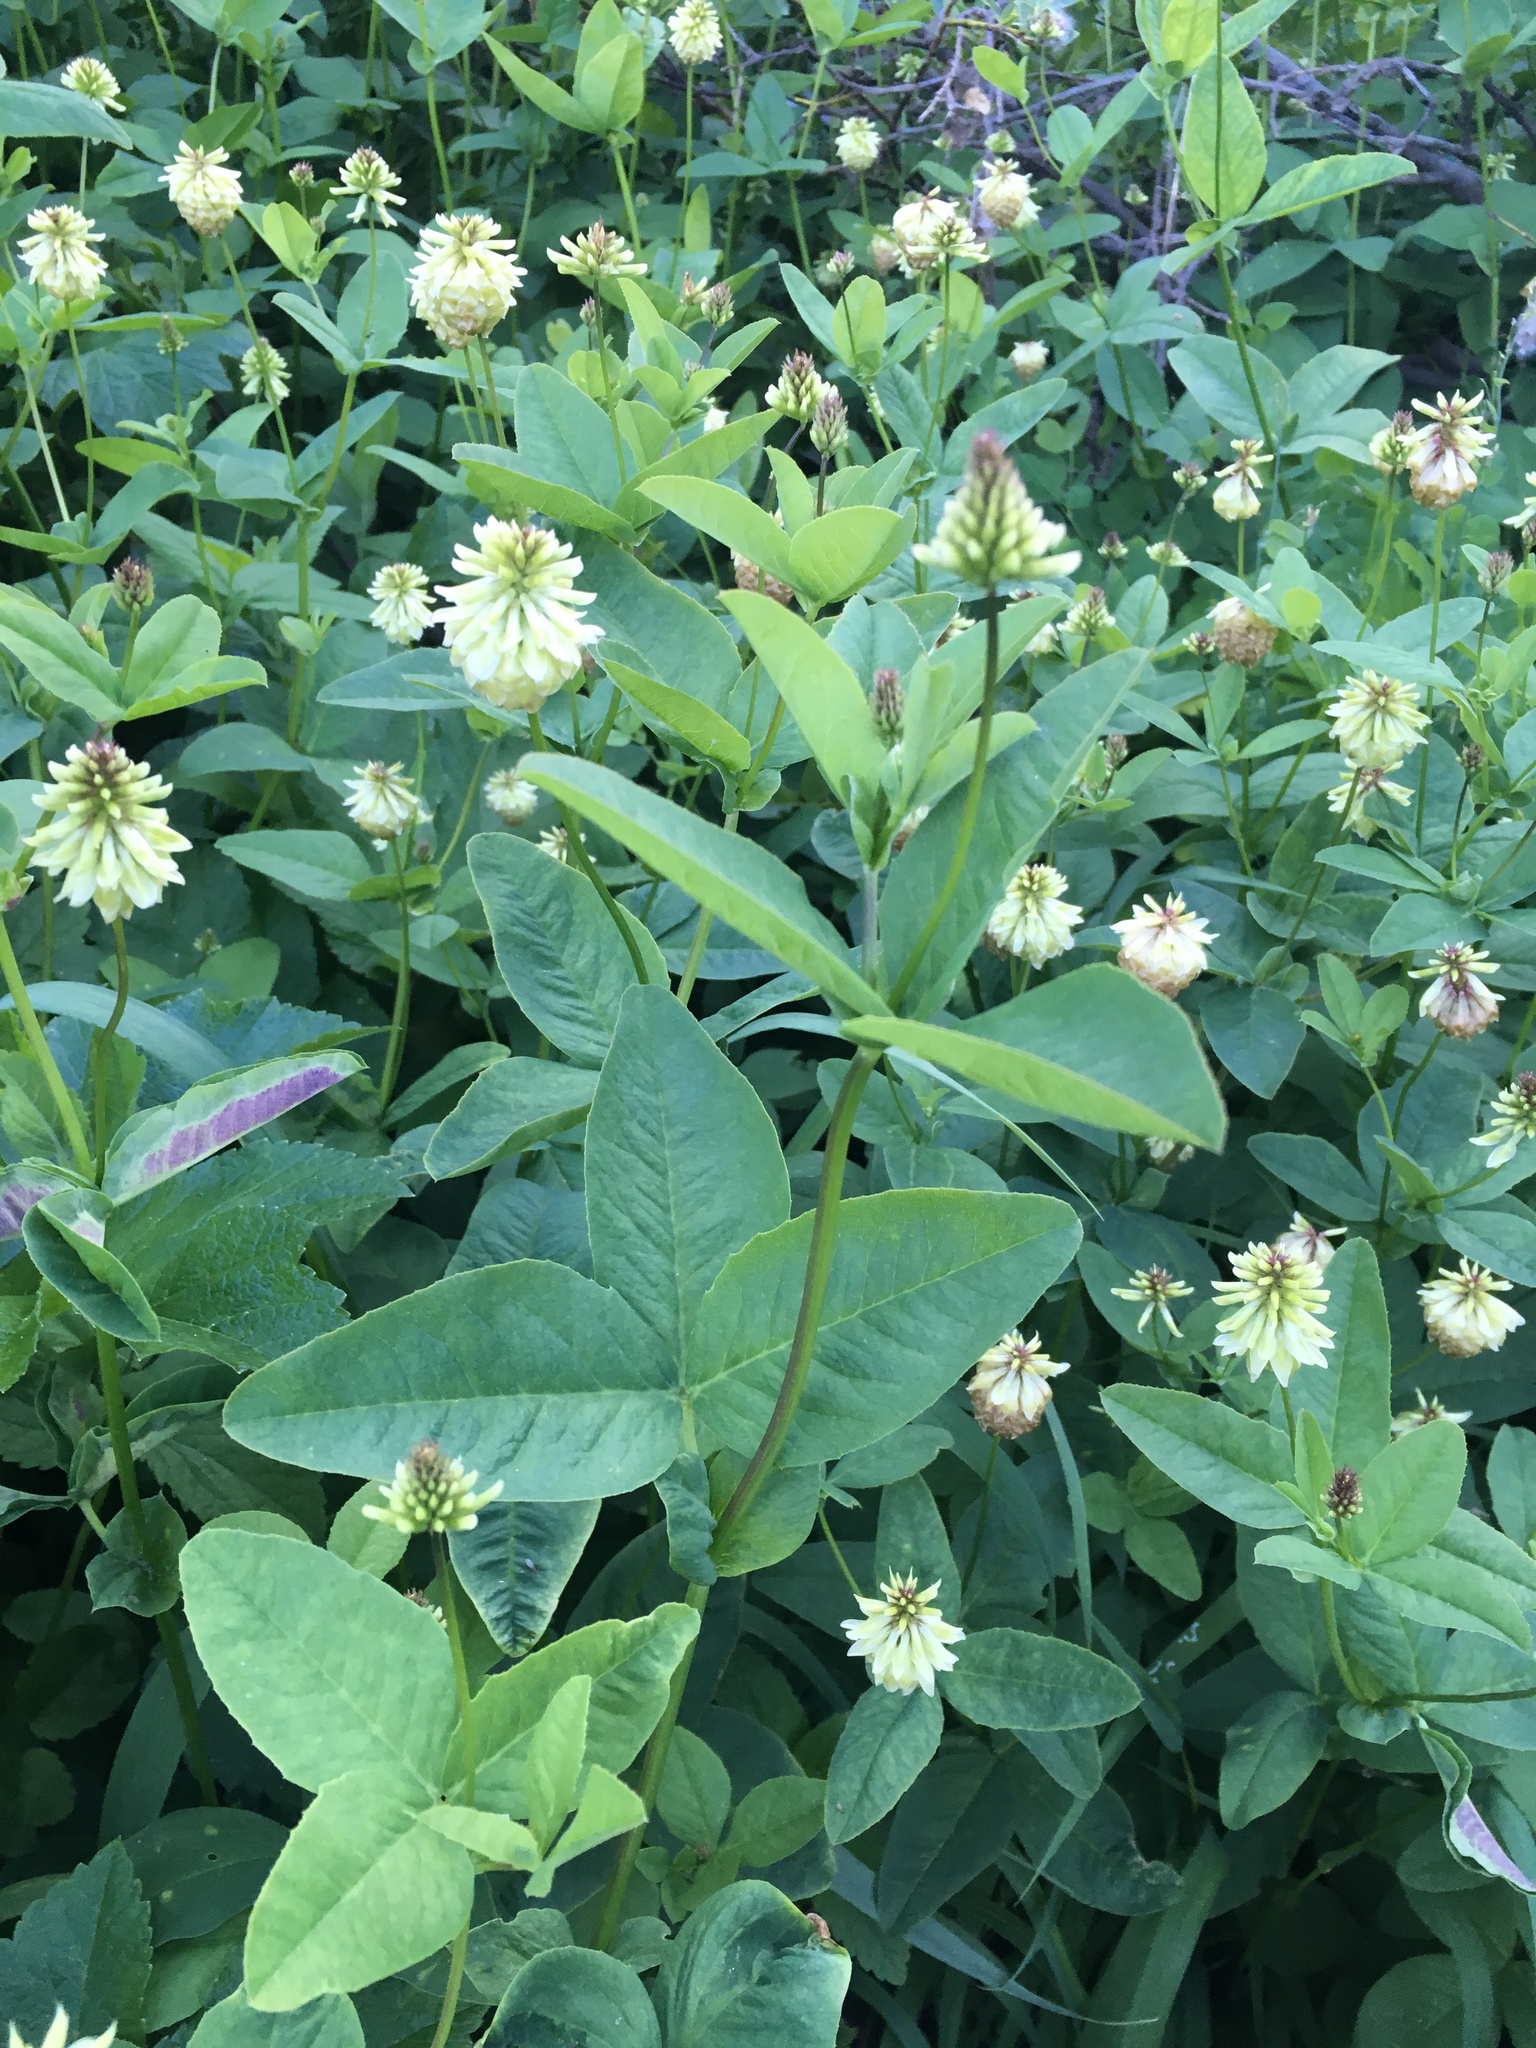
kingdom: Plantae
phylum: Tracheophyta
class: Magnoliopsida
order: Fabales
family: Fabaceae
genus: Trifolium
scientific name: Trifolium howellii
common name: Howell's clover
